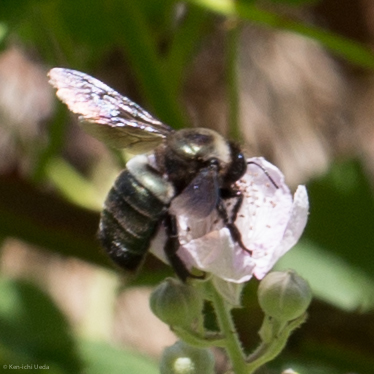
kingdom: Animalia
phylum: Arthropoda
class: Insecta
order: Hymenoptera
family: Apidae
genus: Xylocopa
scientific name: Xylocopa californica
